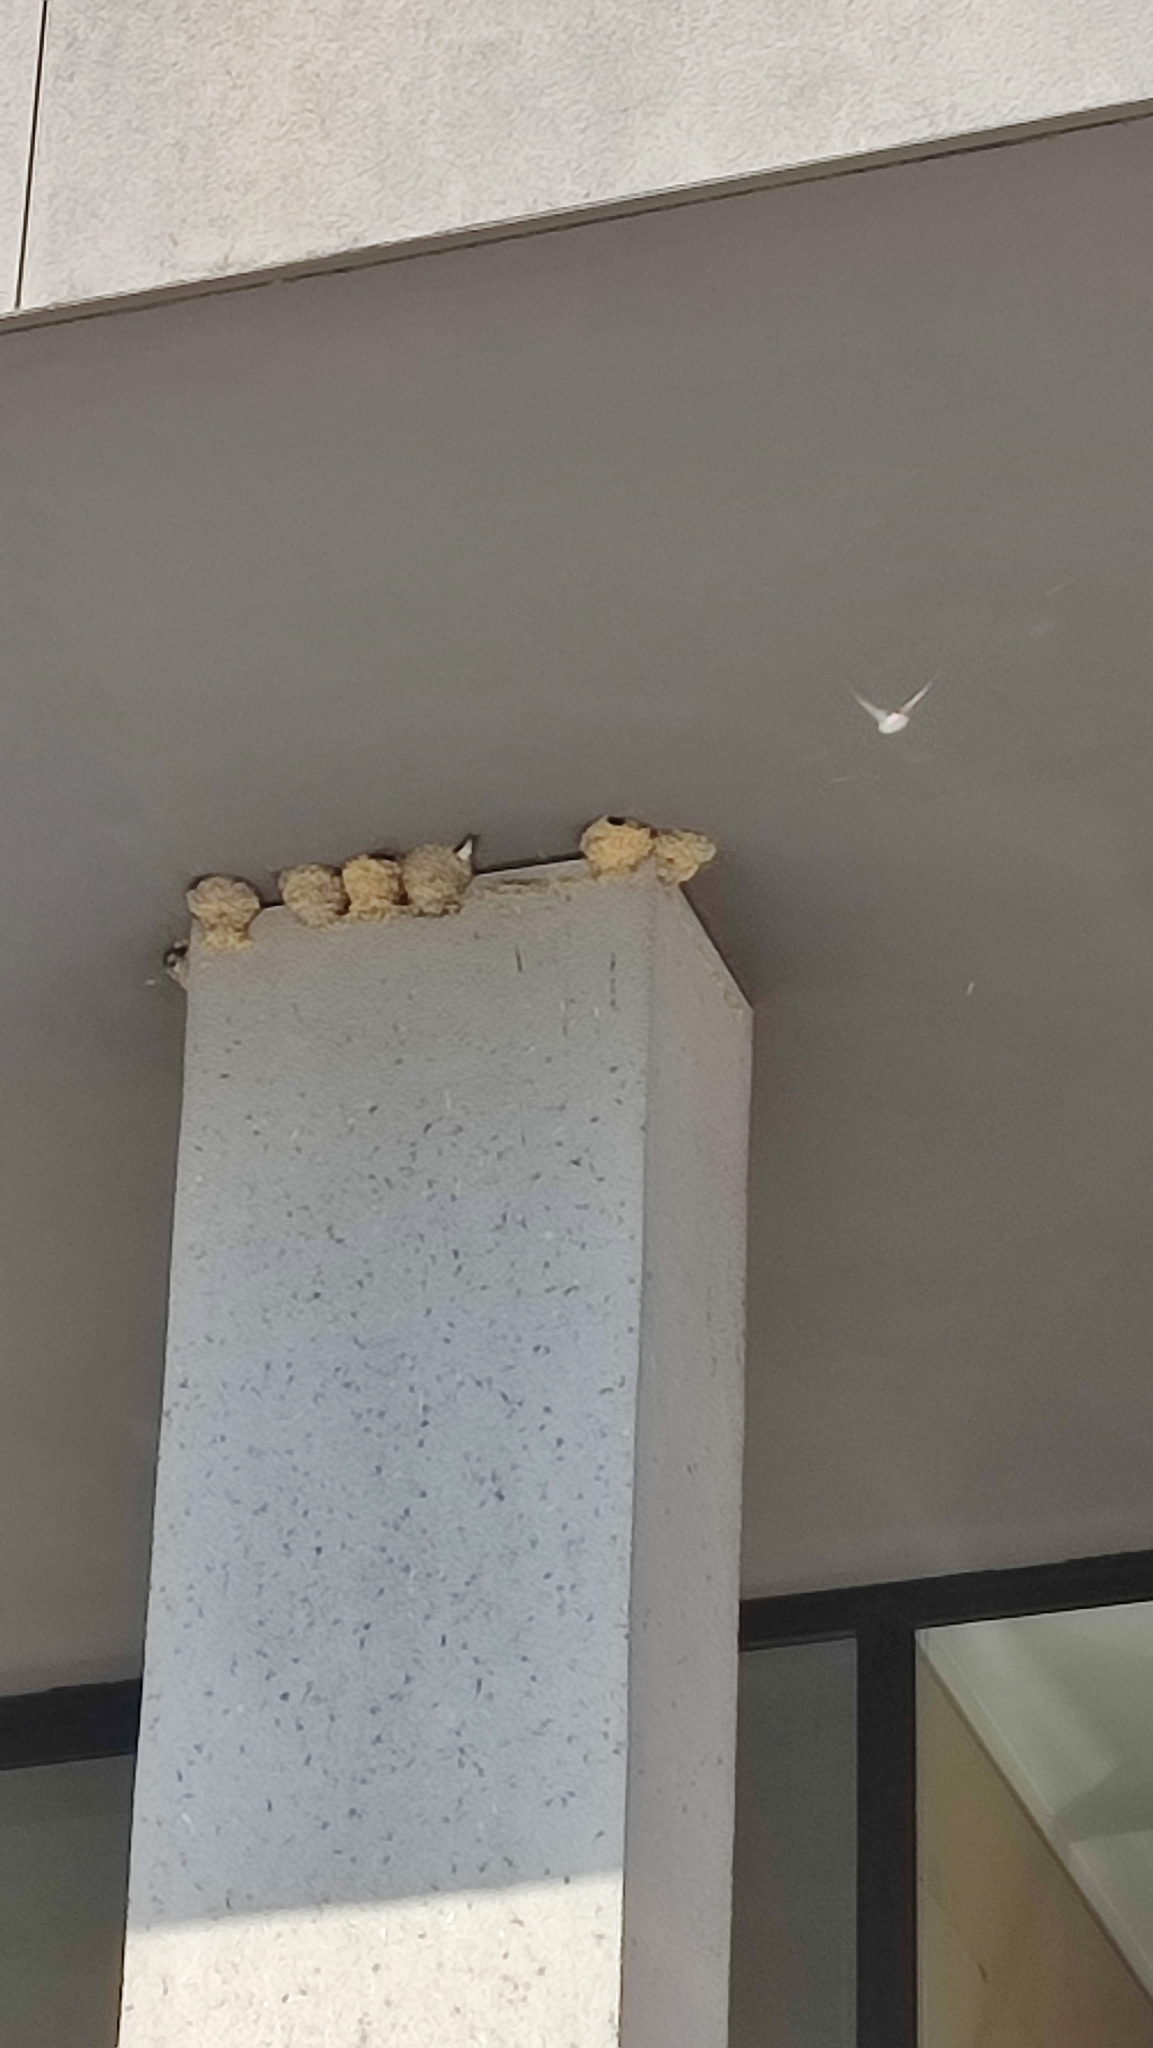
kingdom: Animalia
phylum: Chordata
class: Aves
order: Passeriformes
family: Hirundinidae
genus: Delichon
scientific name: Delichon urbicum
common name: Common house martin
